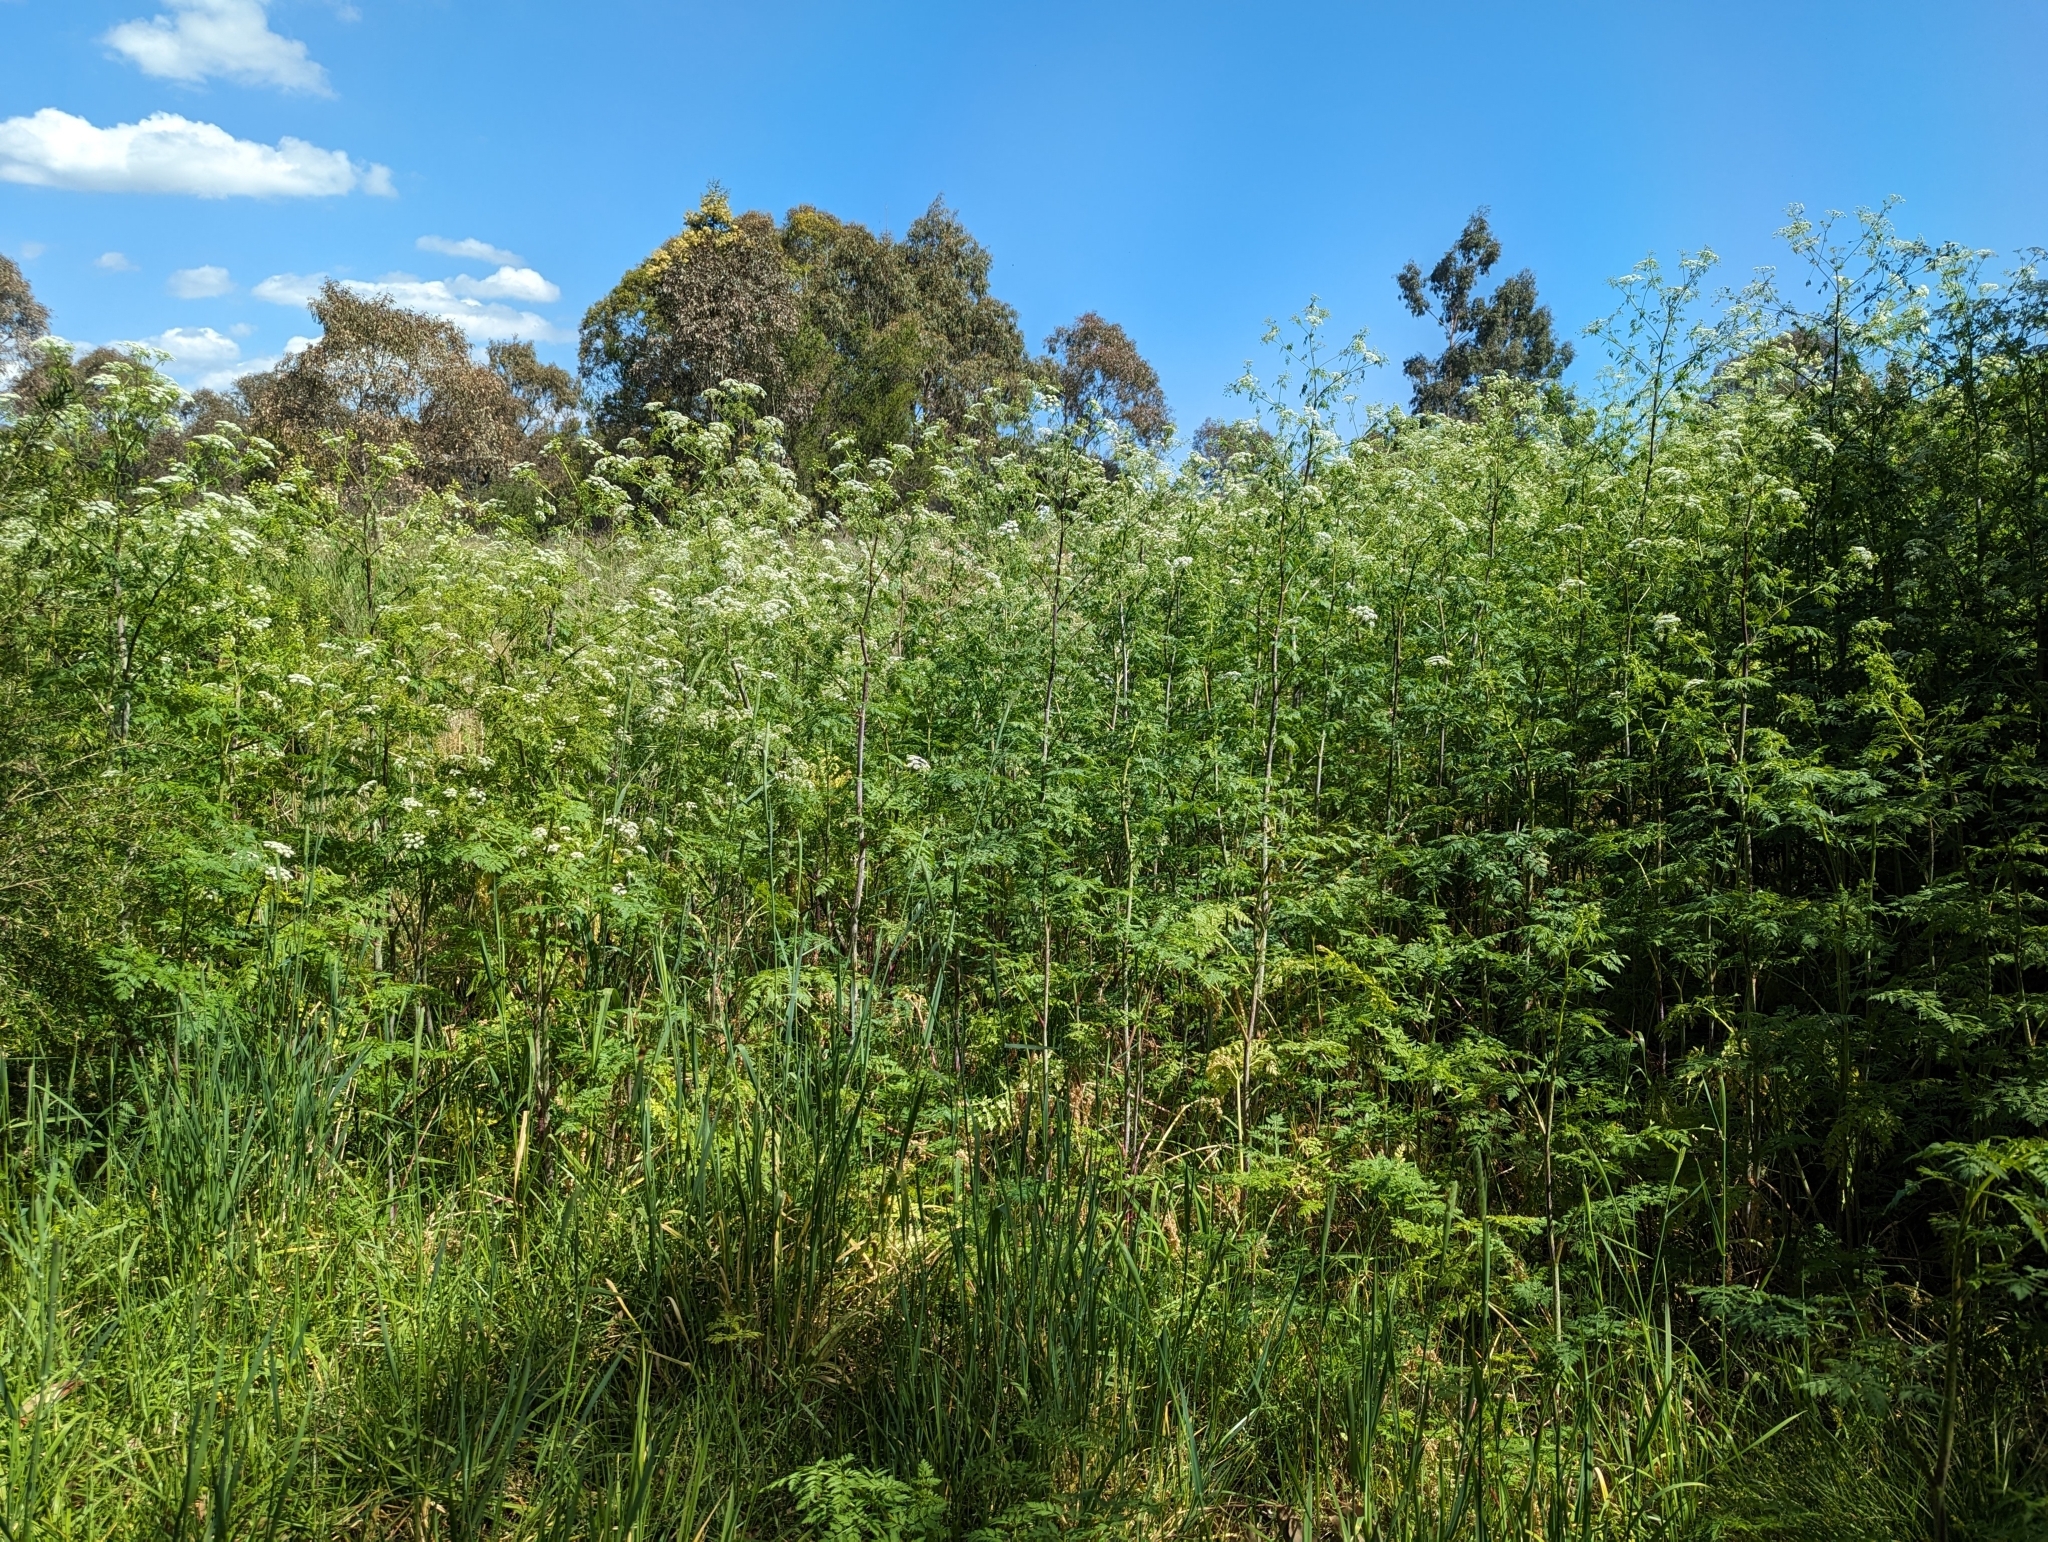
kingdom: Plantae
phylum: Tracheophyta
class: Magnoliopsida
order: Apiales
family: Apiaceae
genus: Conium
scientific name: Conium maculatum
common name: Hemlock
